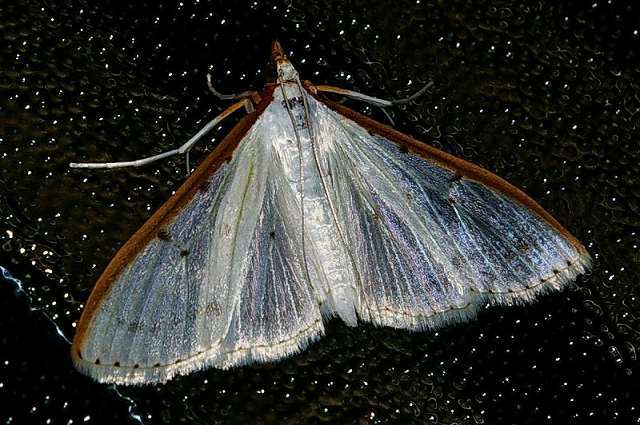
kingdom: Animalia
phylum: Arthropoda
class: Insecta
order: Lepidoptera
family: Crambidae
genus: Palpita
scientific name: Palpita nigropunctalis
